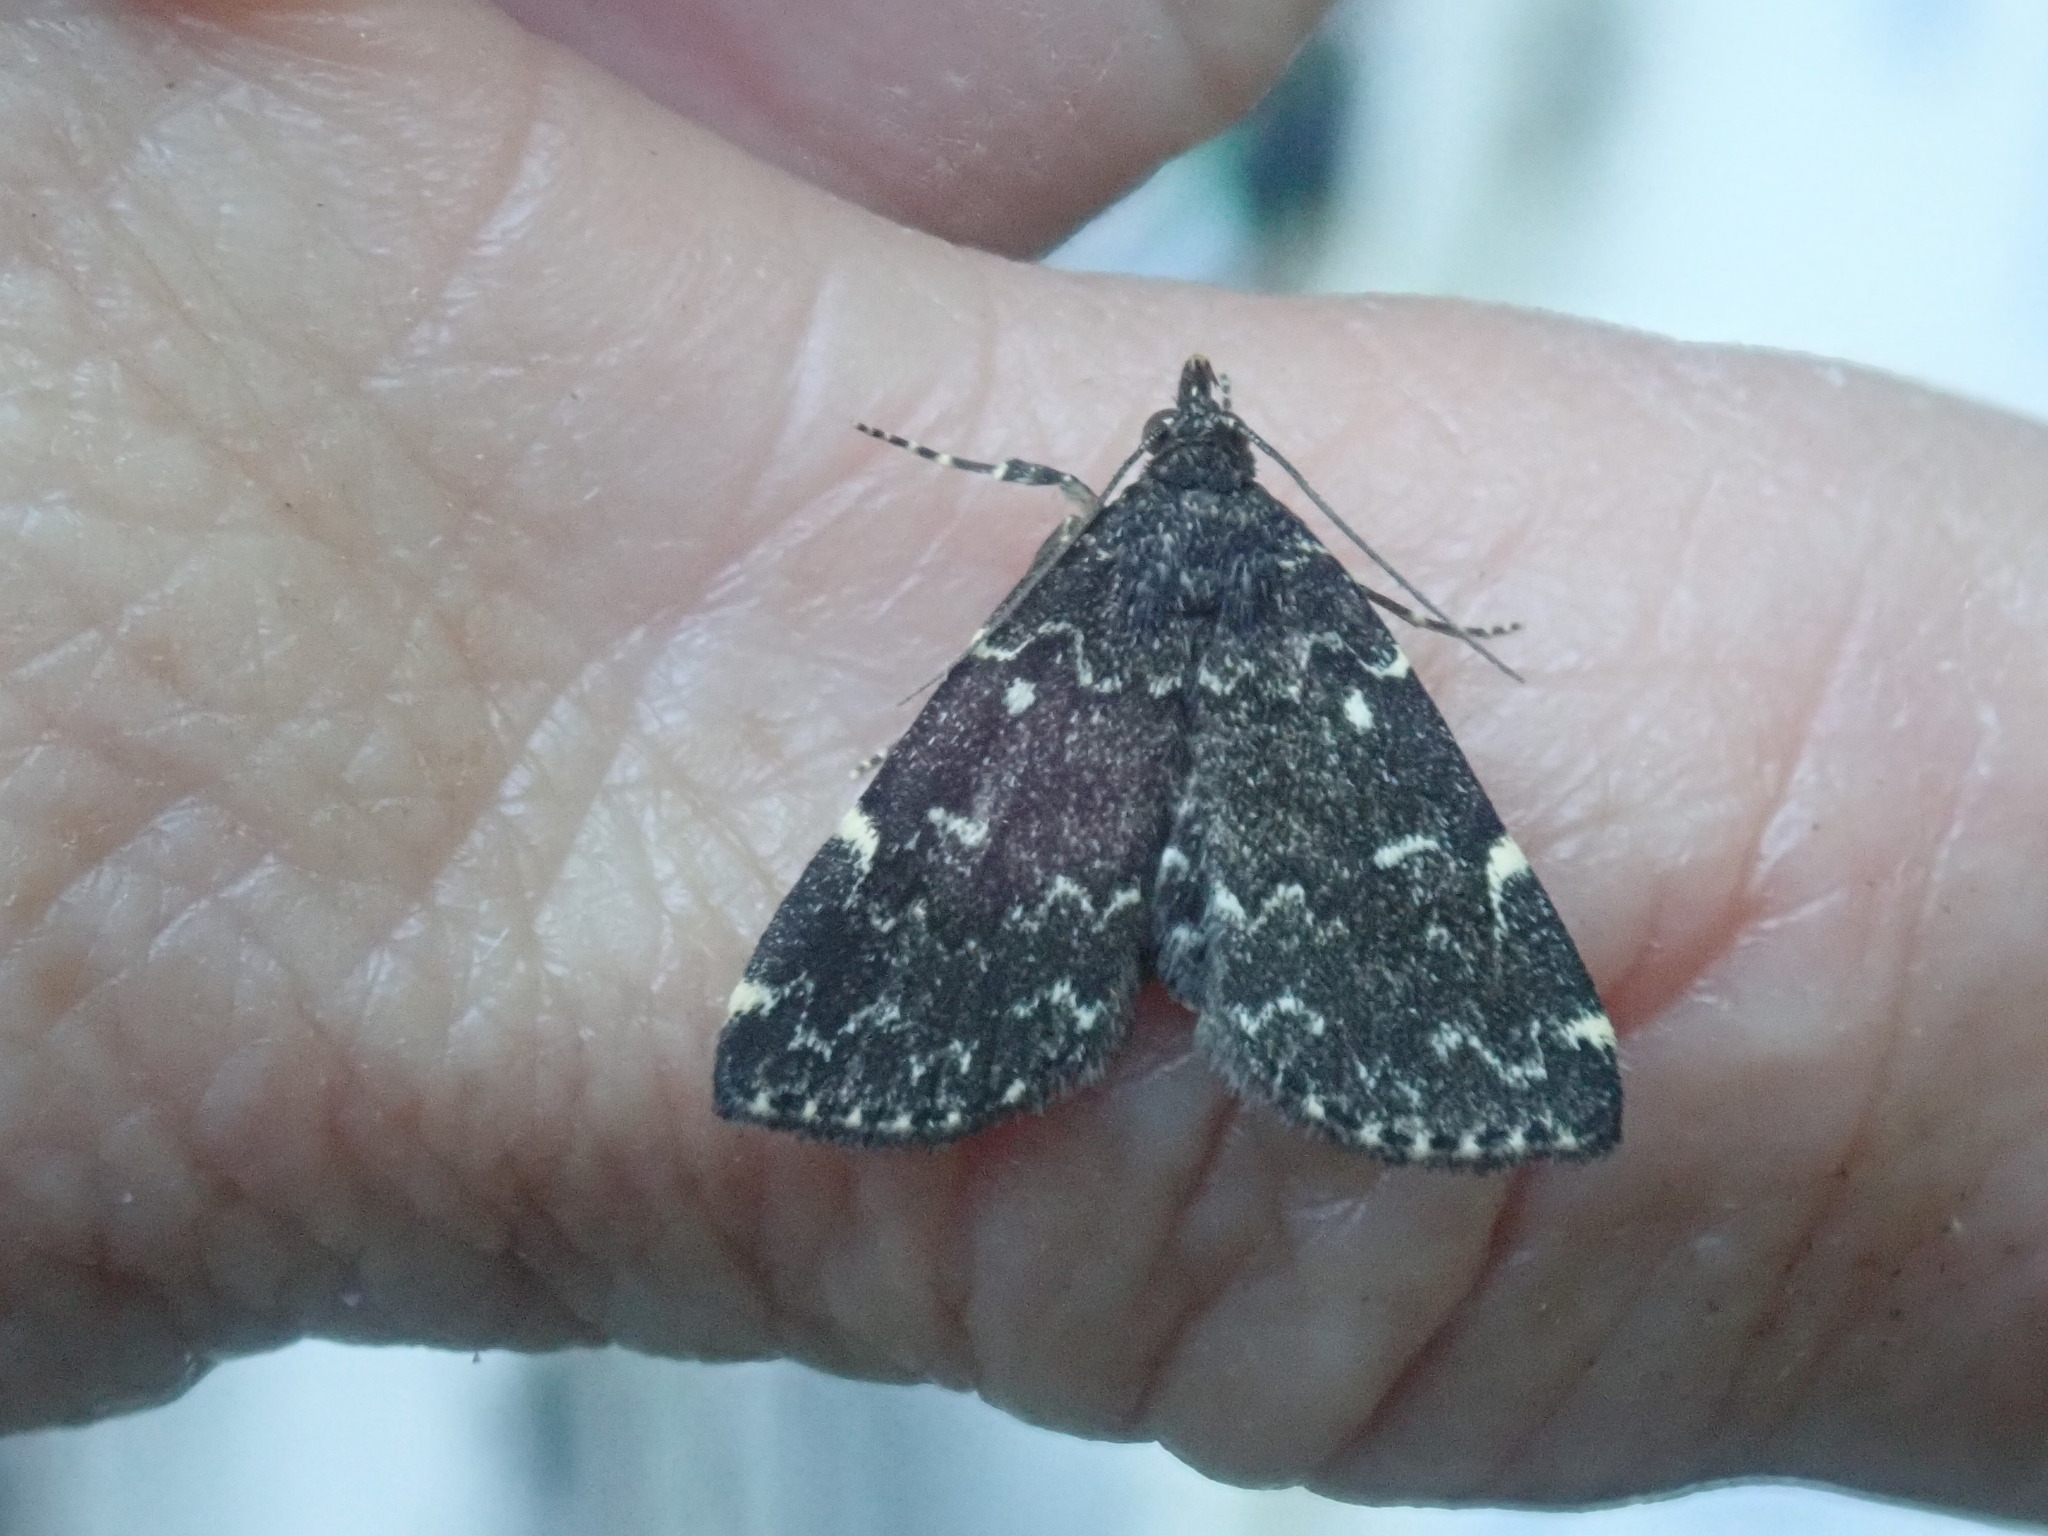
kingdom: Animalia
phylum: Arthropoda
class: Insecta
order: Lepidoptera
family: Erebidae
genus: Idia
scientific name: Idia scobialis
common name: Smoky idia moth
